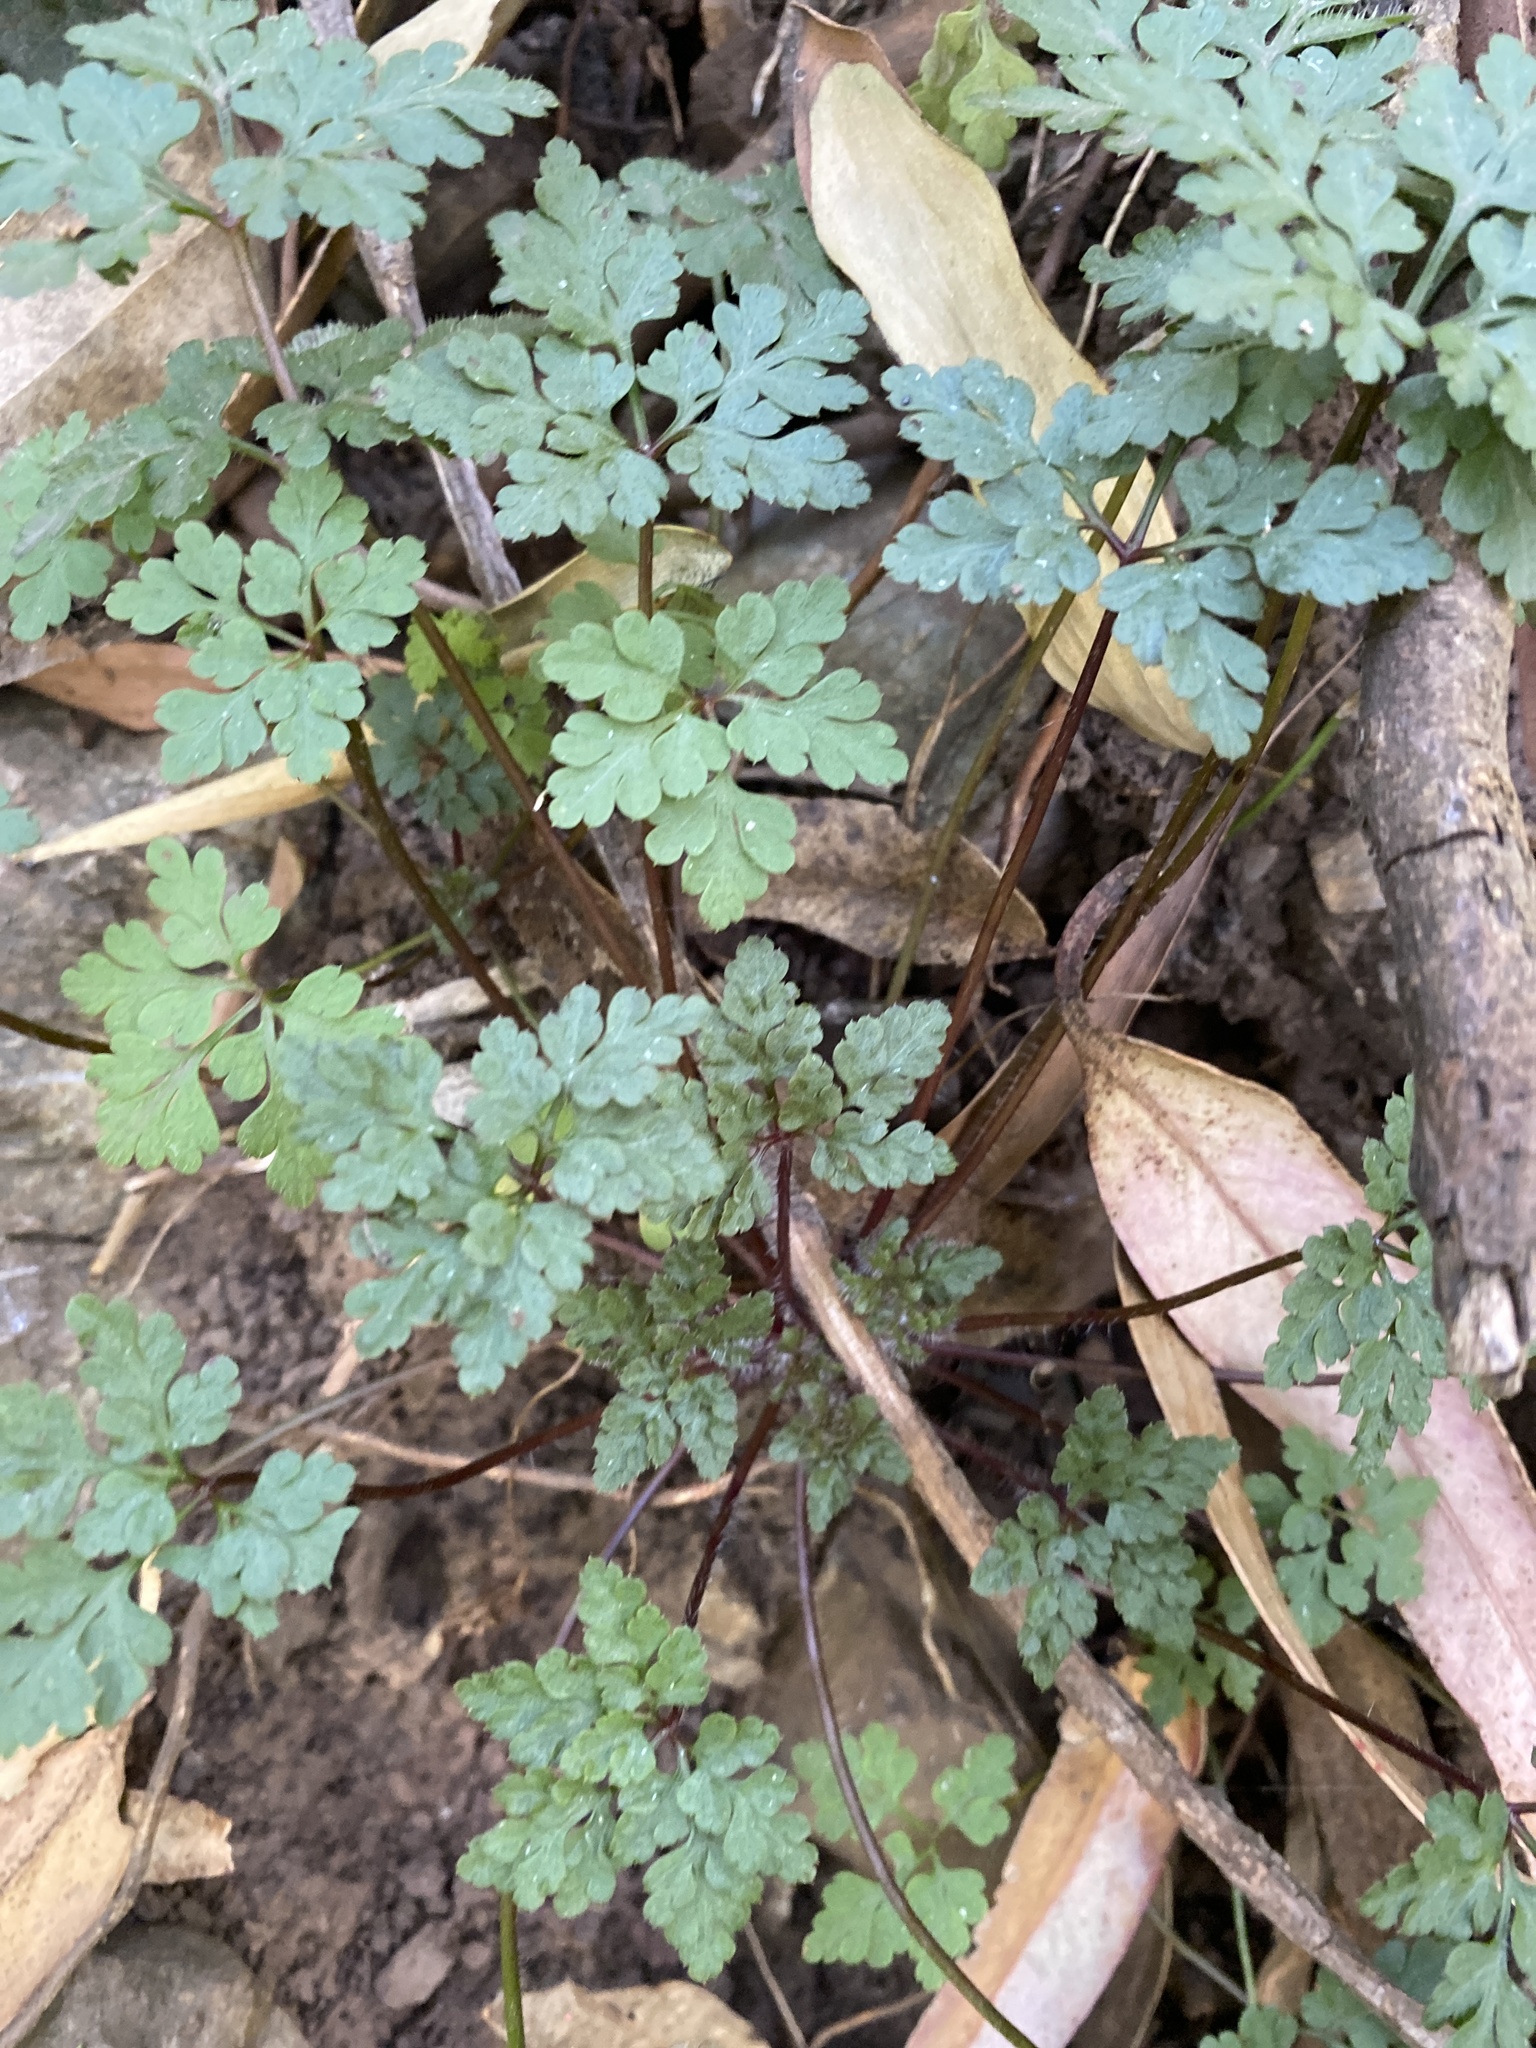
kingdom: Plantae
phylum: Tracheophyta
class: Magnoliopsida
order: Geraniales
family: Geraniaceae
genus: Geranium
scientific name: Geranium
